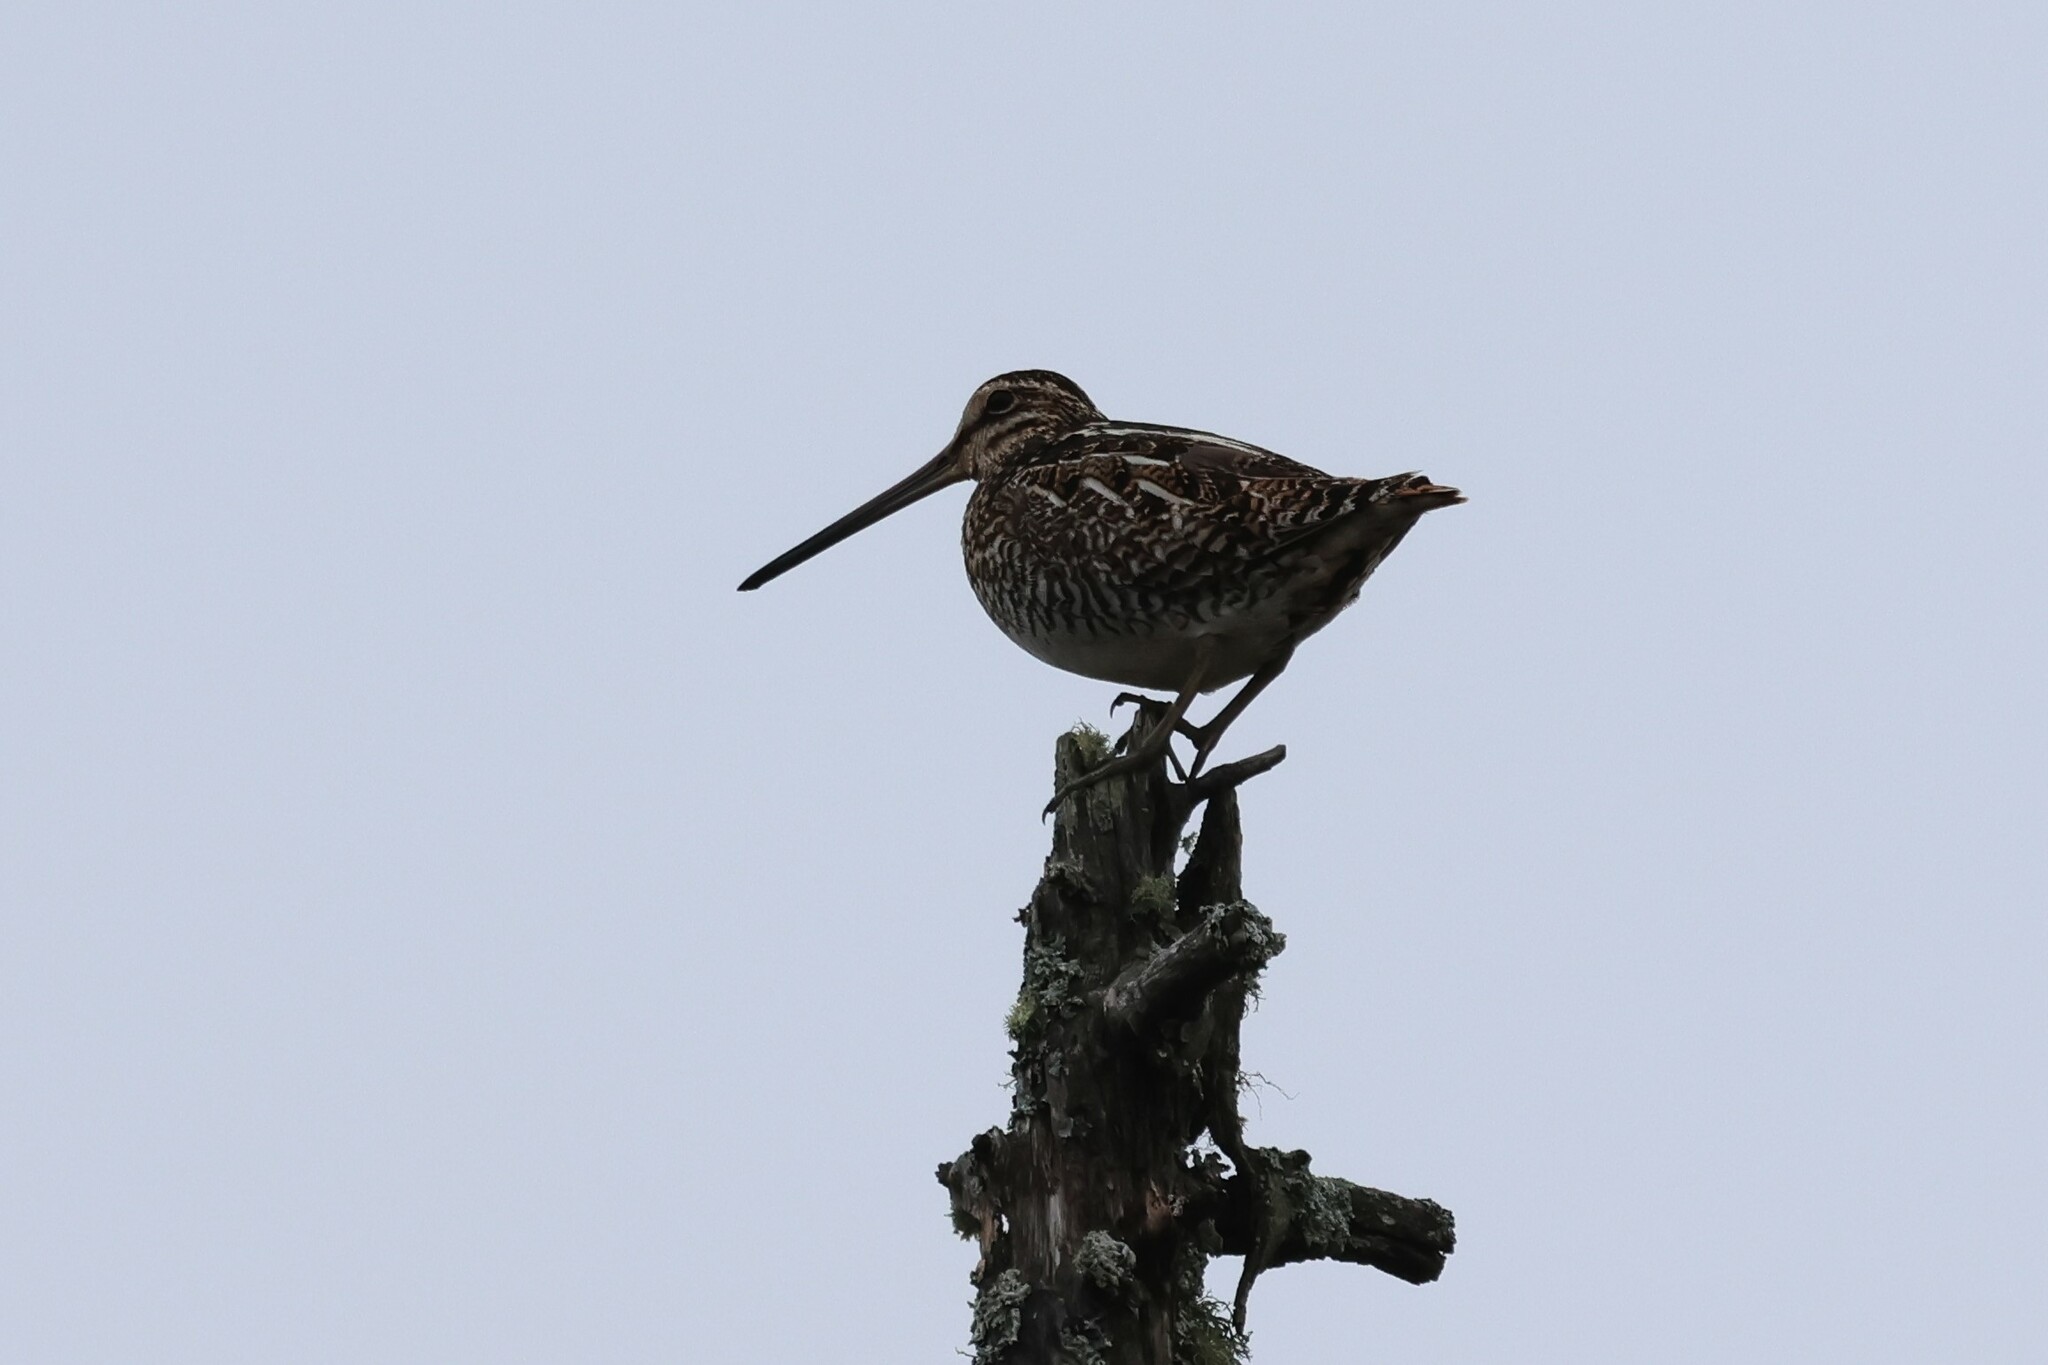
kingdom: Animalia
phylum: Chordata
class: Aves
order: Charadriiformes
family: Scolopacidae
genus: Gallinago
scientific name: Gallinago delicata
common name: Wilson's snipe
